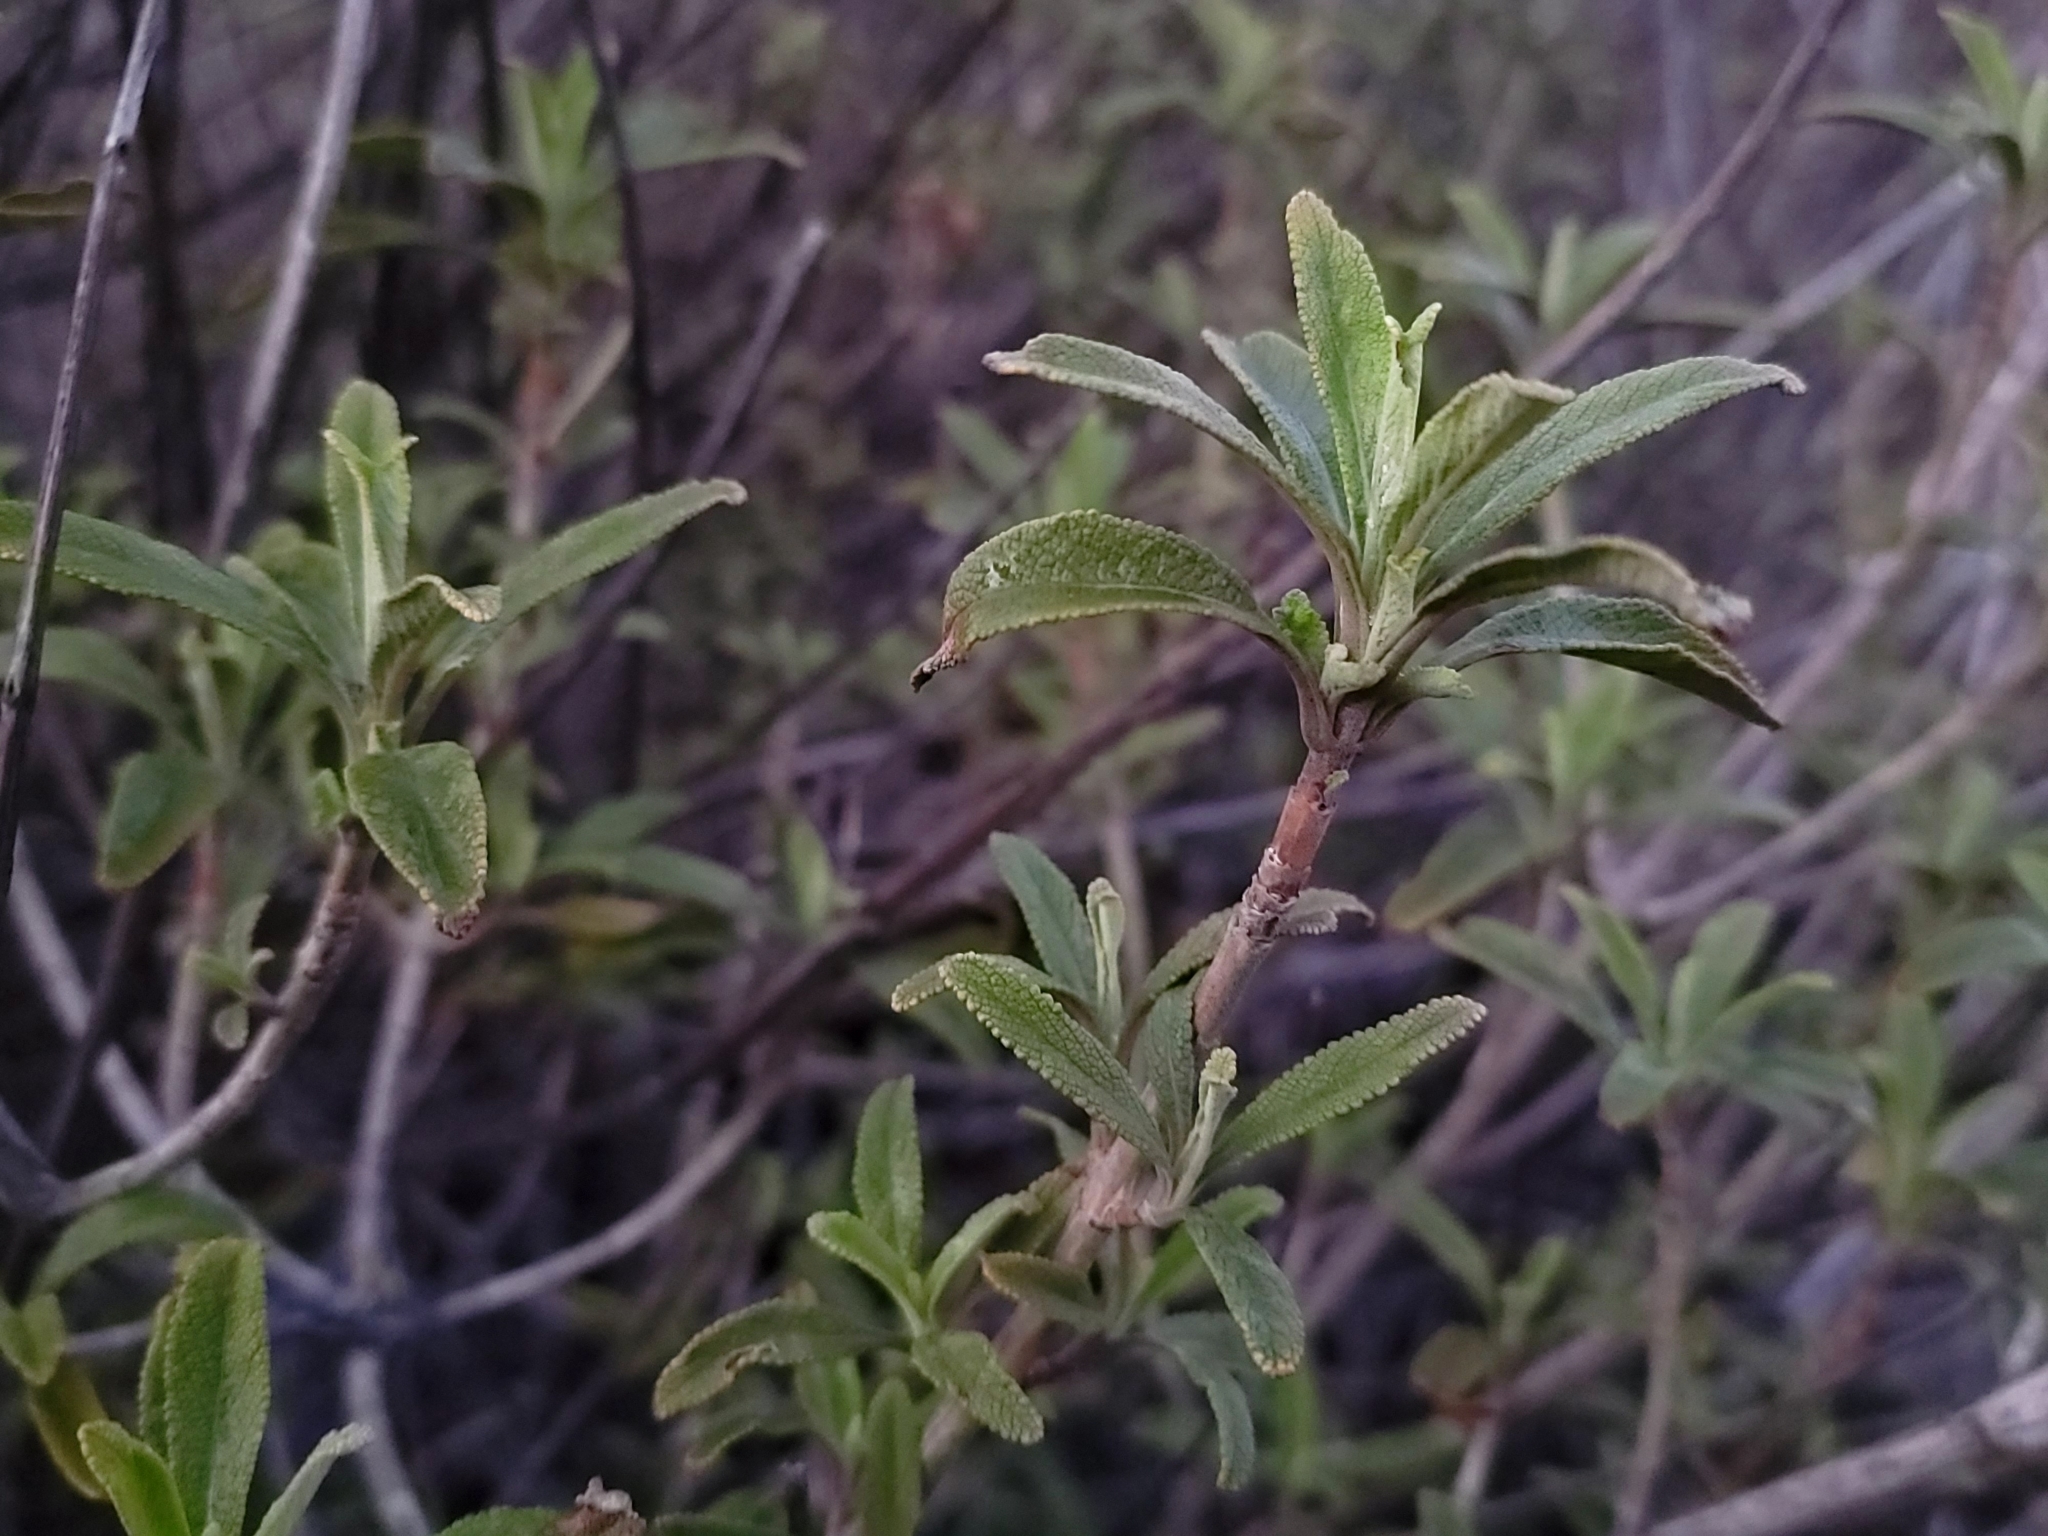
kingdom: Plantae
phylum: Tracheophyta
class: Magnoliopsida
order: Lamiales
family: Lamiaceae
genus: Salvia
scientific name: Salvia mellifera
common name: Black sage
